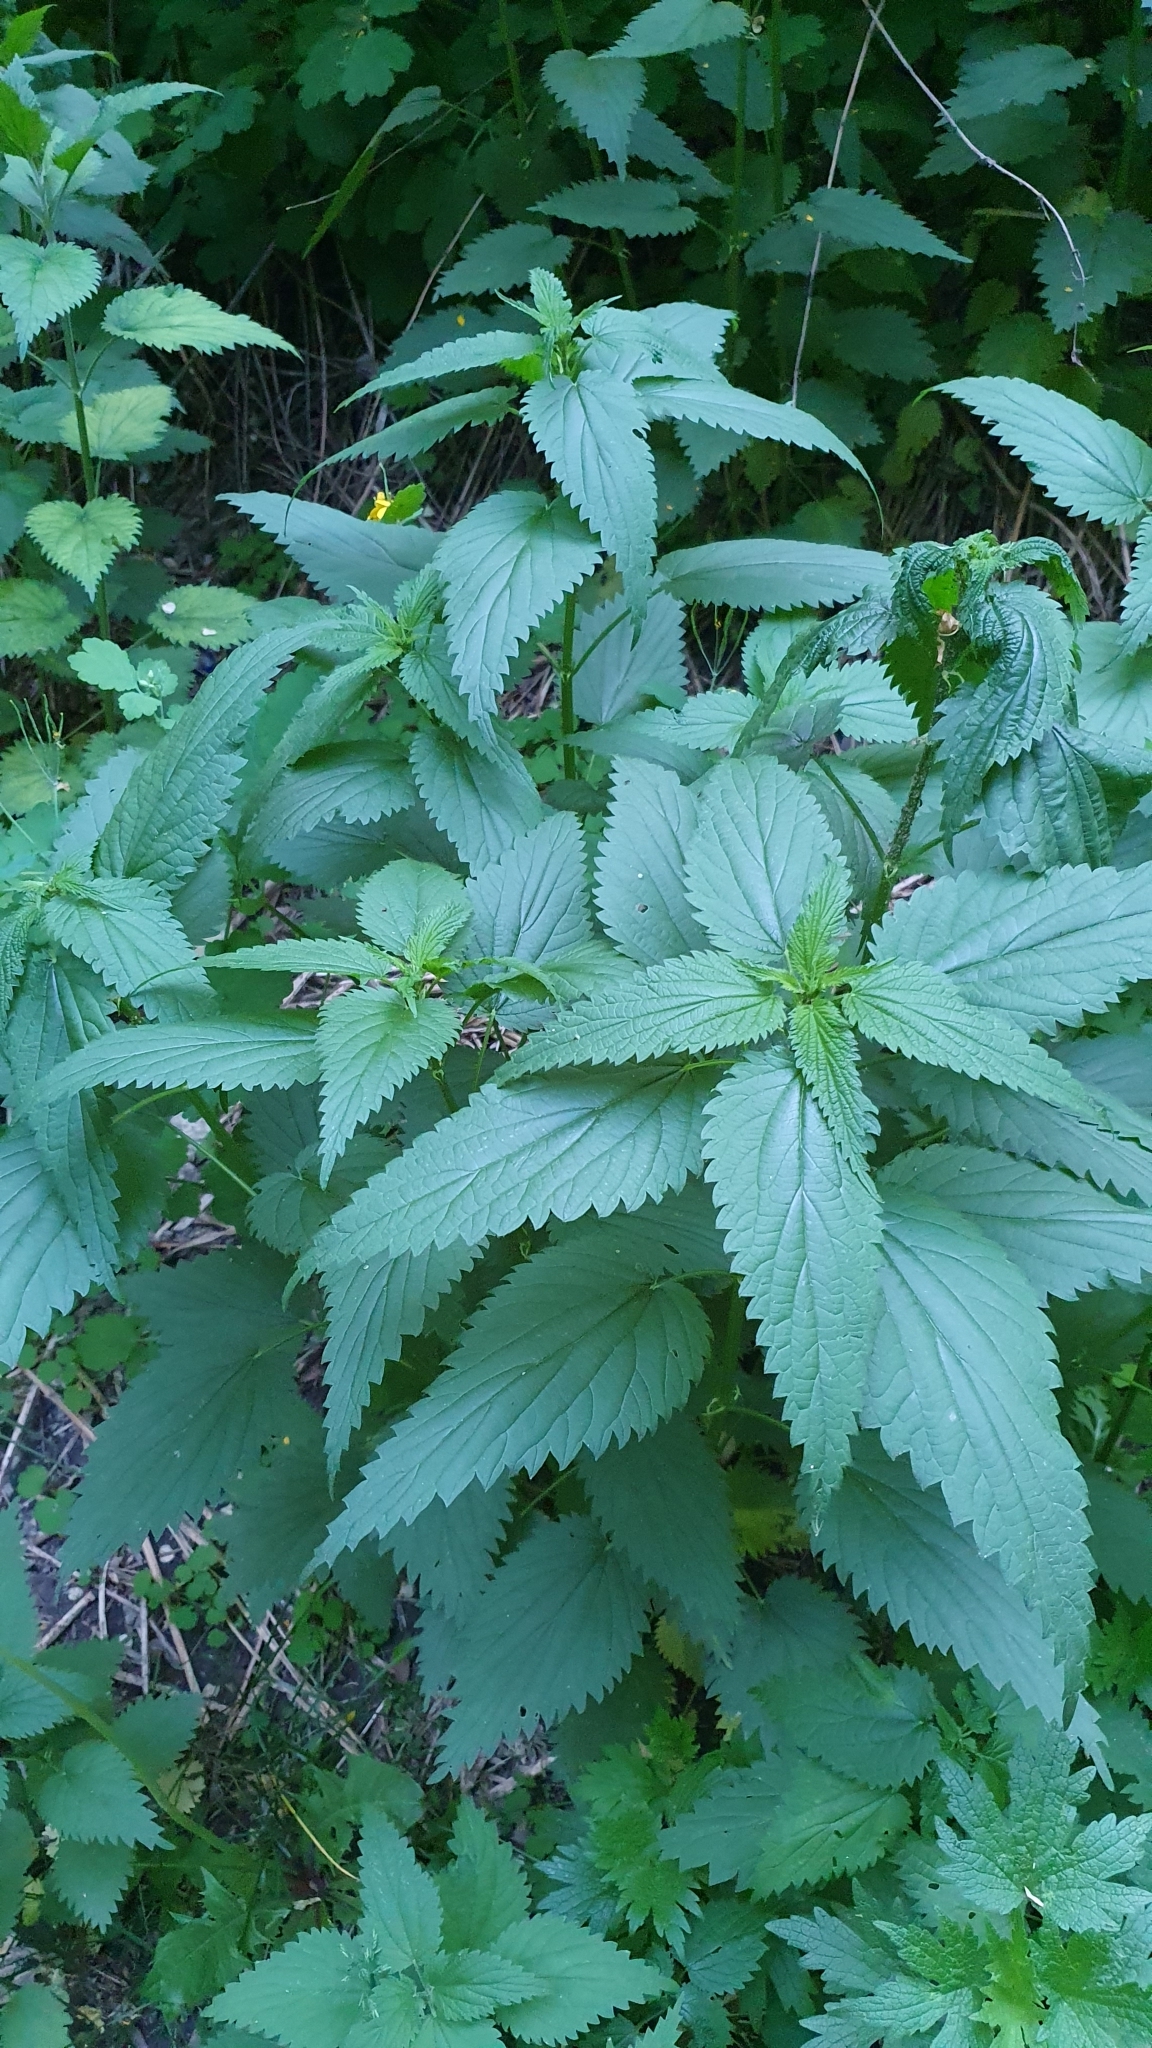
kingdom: Plantae
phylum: Tracheophyta
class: Magnoliopsida
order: Rosales
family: Urticaceae
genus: Urtica
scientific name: Urtica dioica
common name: Common nettle
